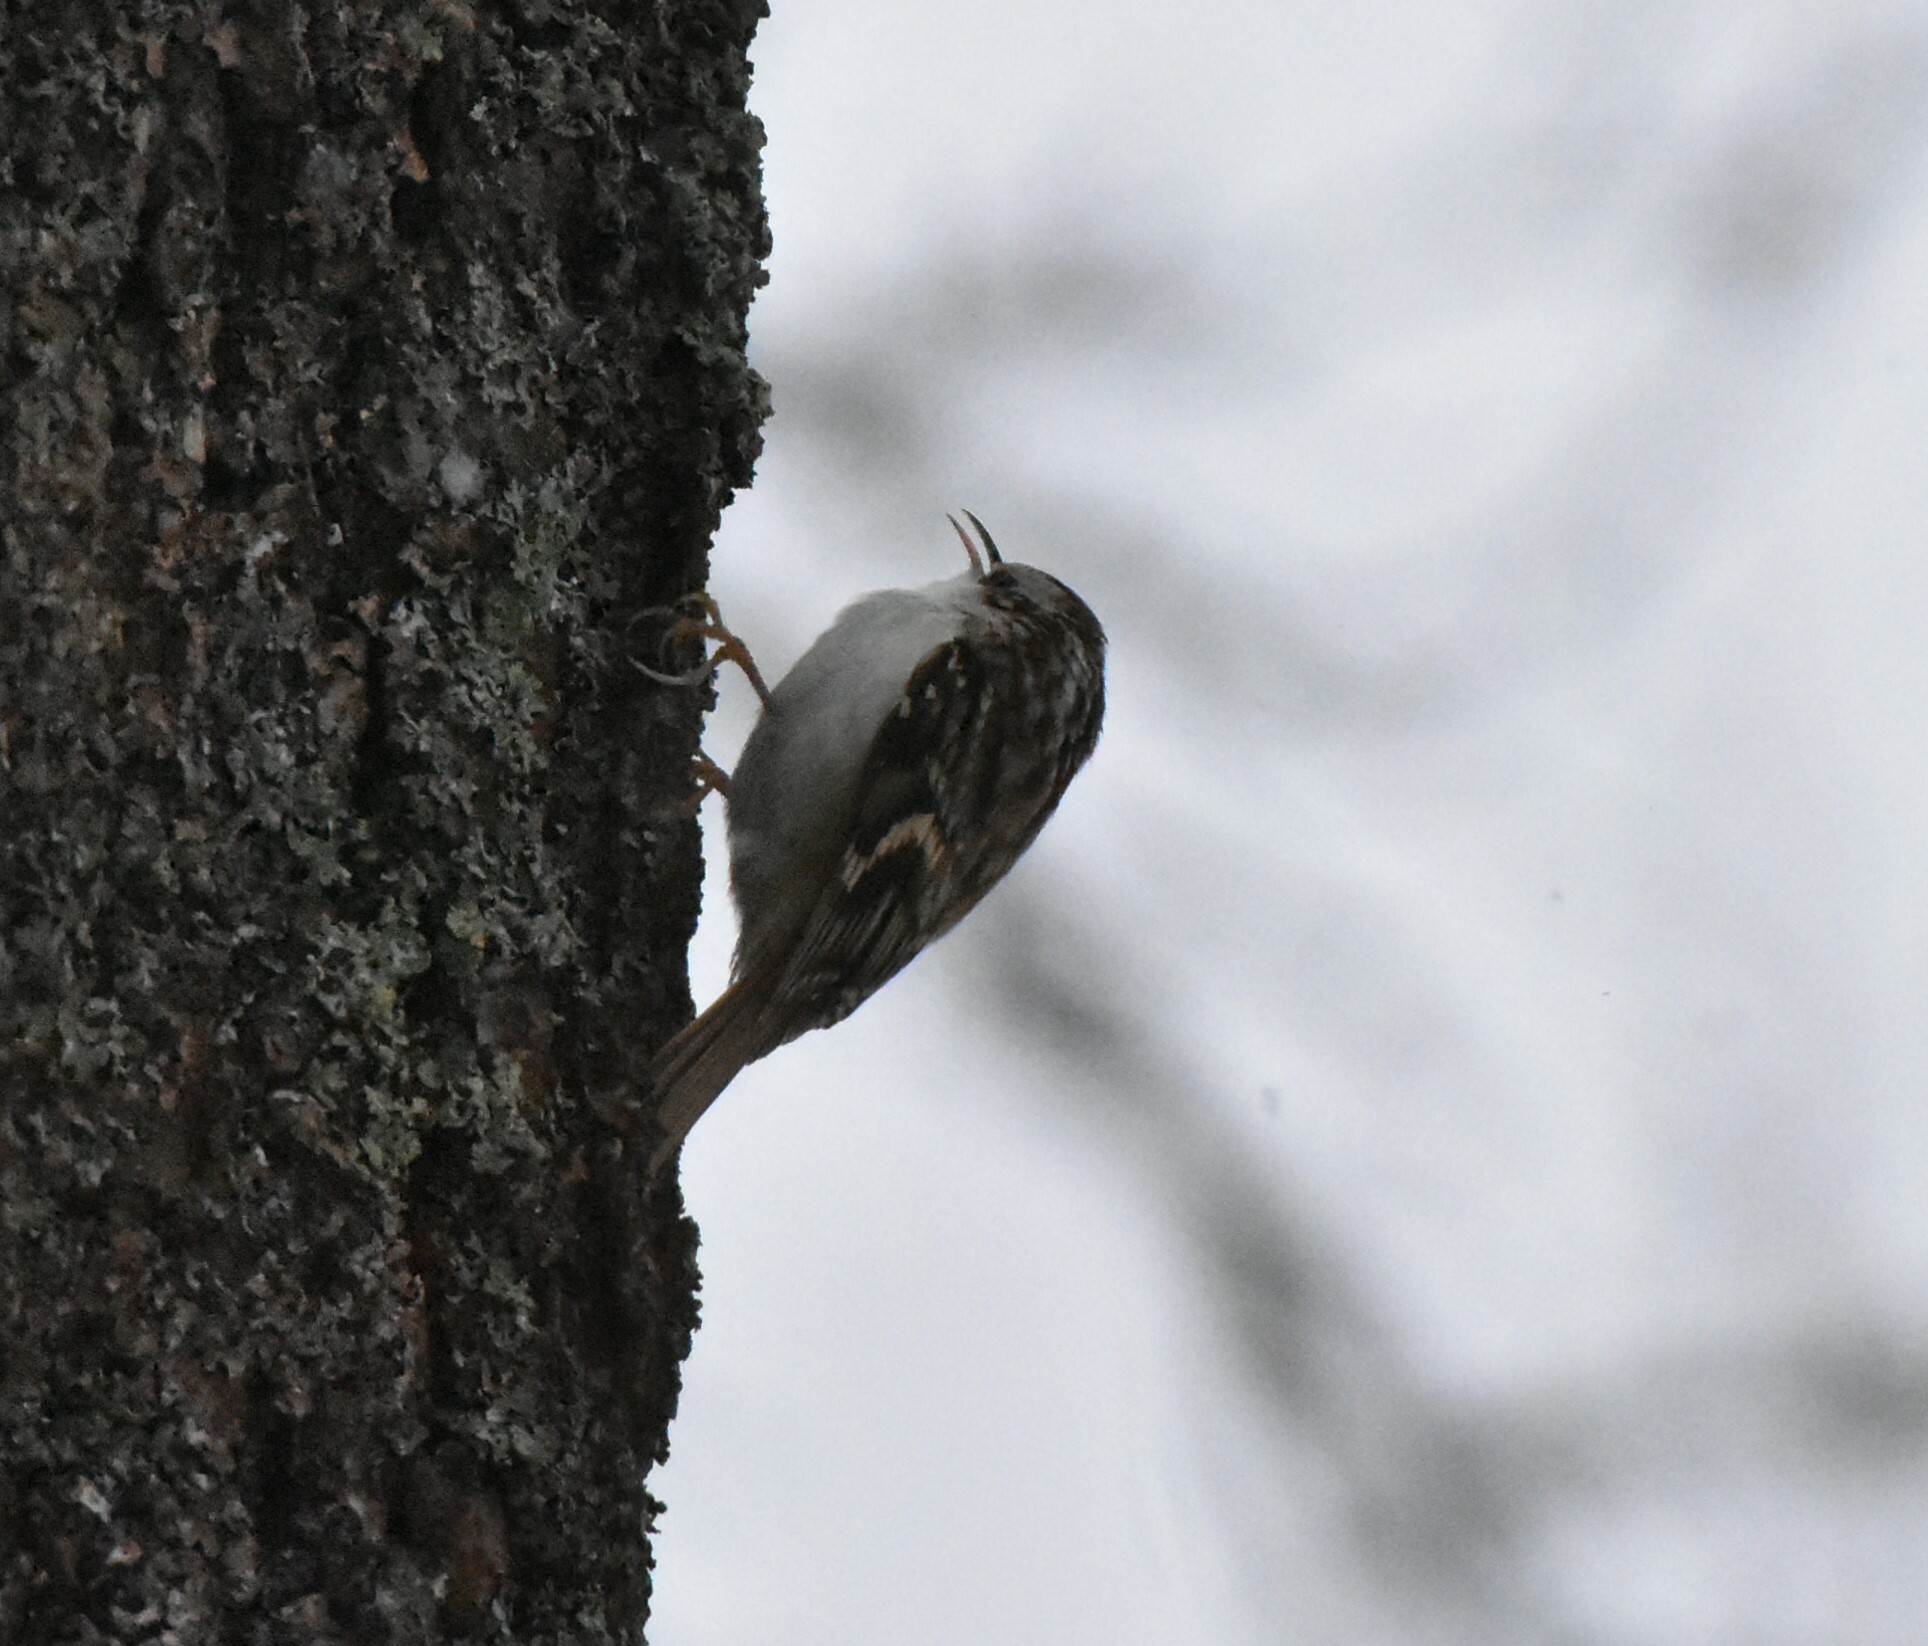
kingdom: Animalia
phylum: Chordata
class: Aves
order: Passeriformes
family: Certhiidae
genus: Certhia
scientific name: Certhia familiaris
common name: Eurasian treecreeper
